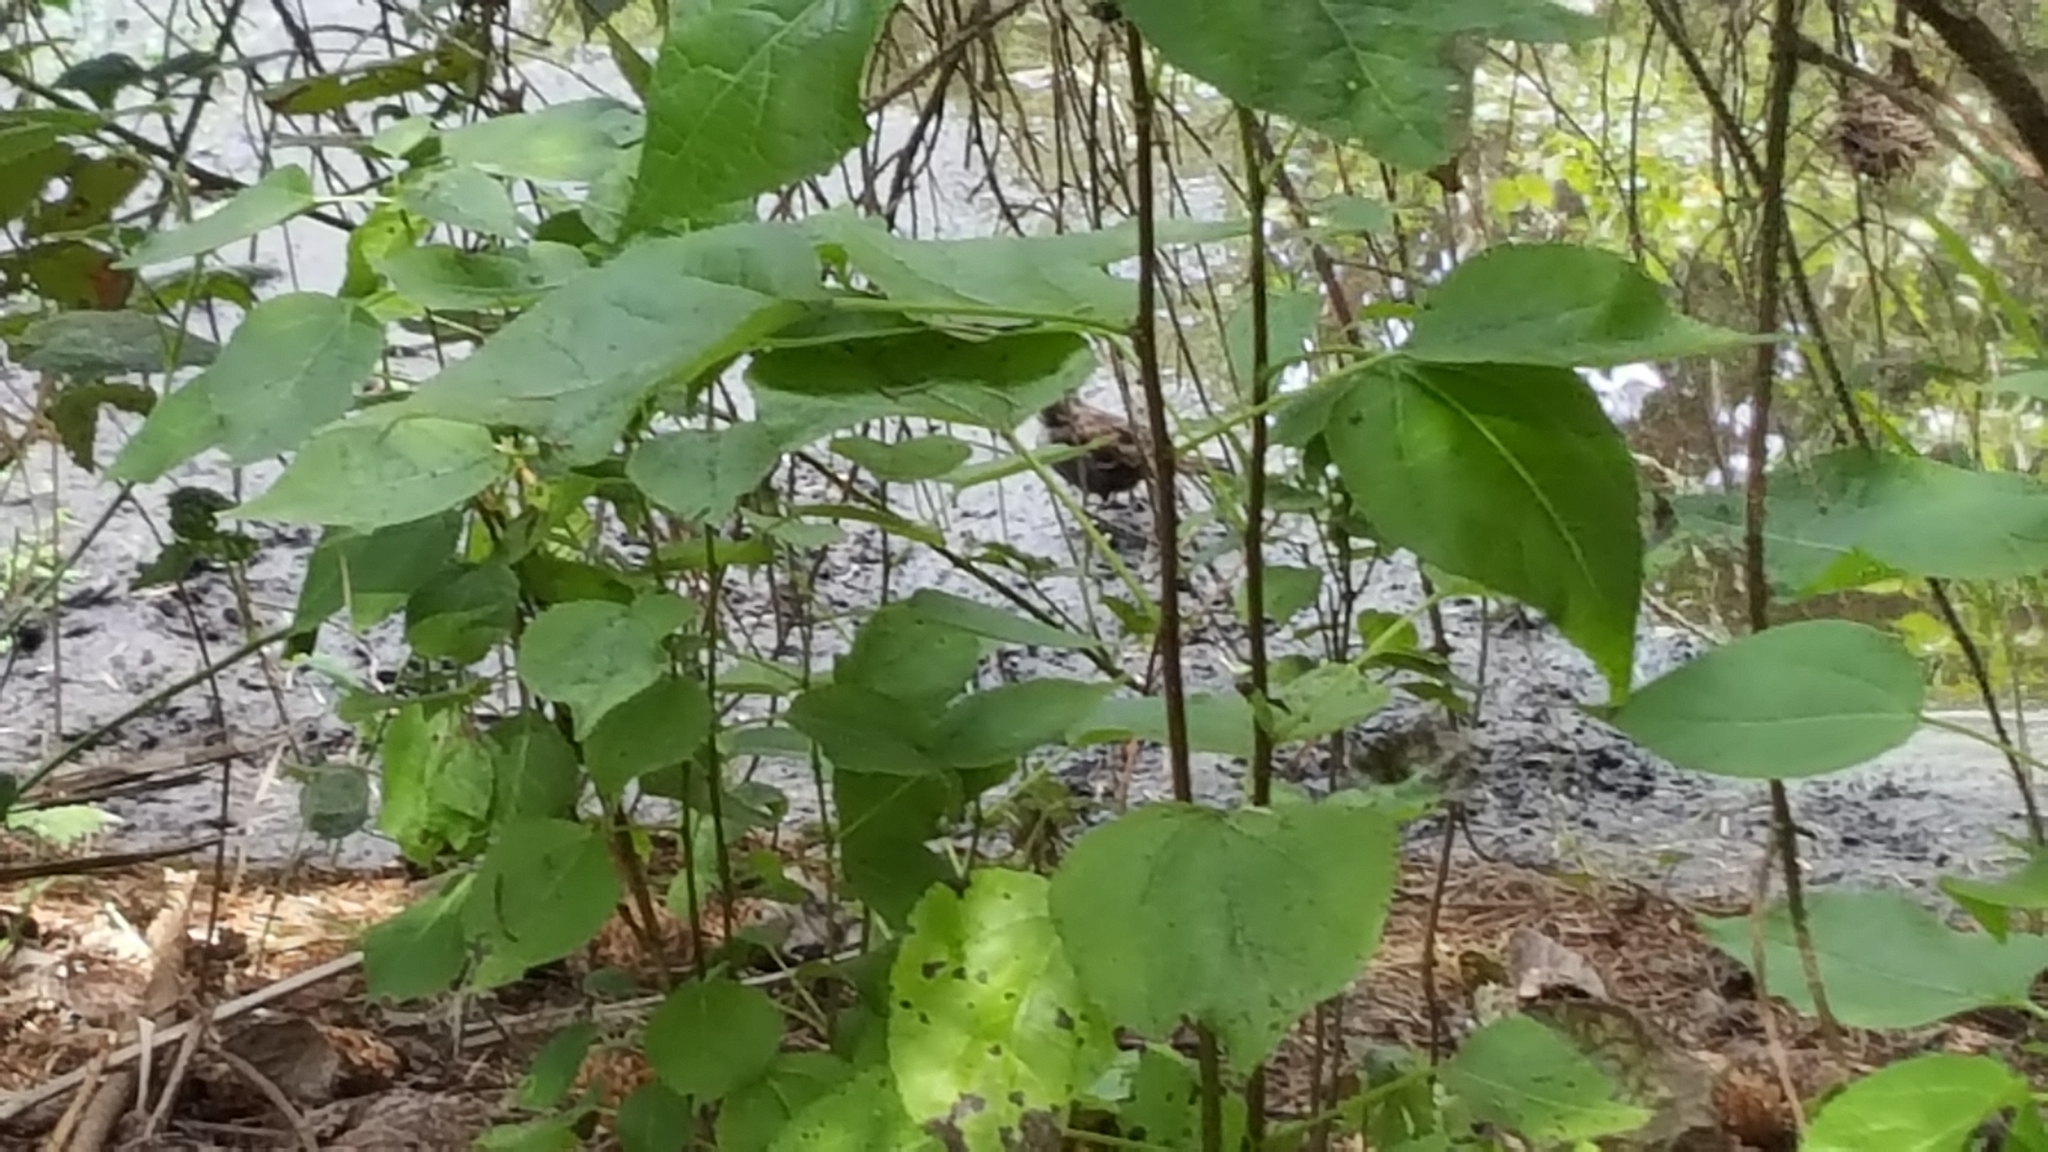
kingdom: Animalia
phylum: Chordata
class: Aves
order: Passeriformes
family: Passerellidae
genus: Melospiza
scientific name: Melospiza melodia
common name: Song sparrow
